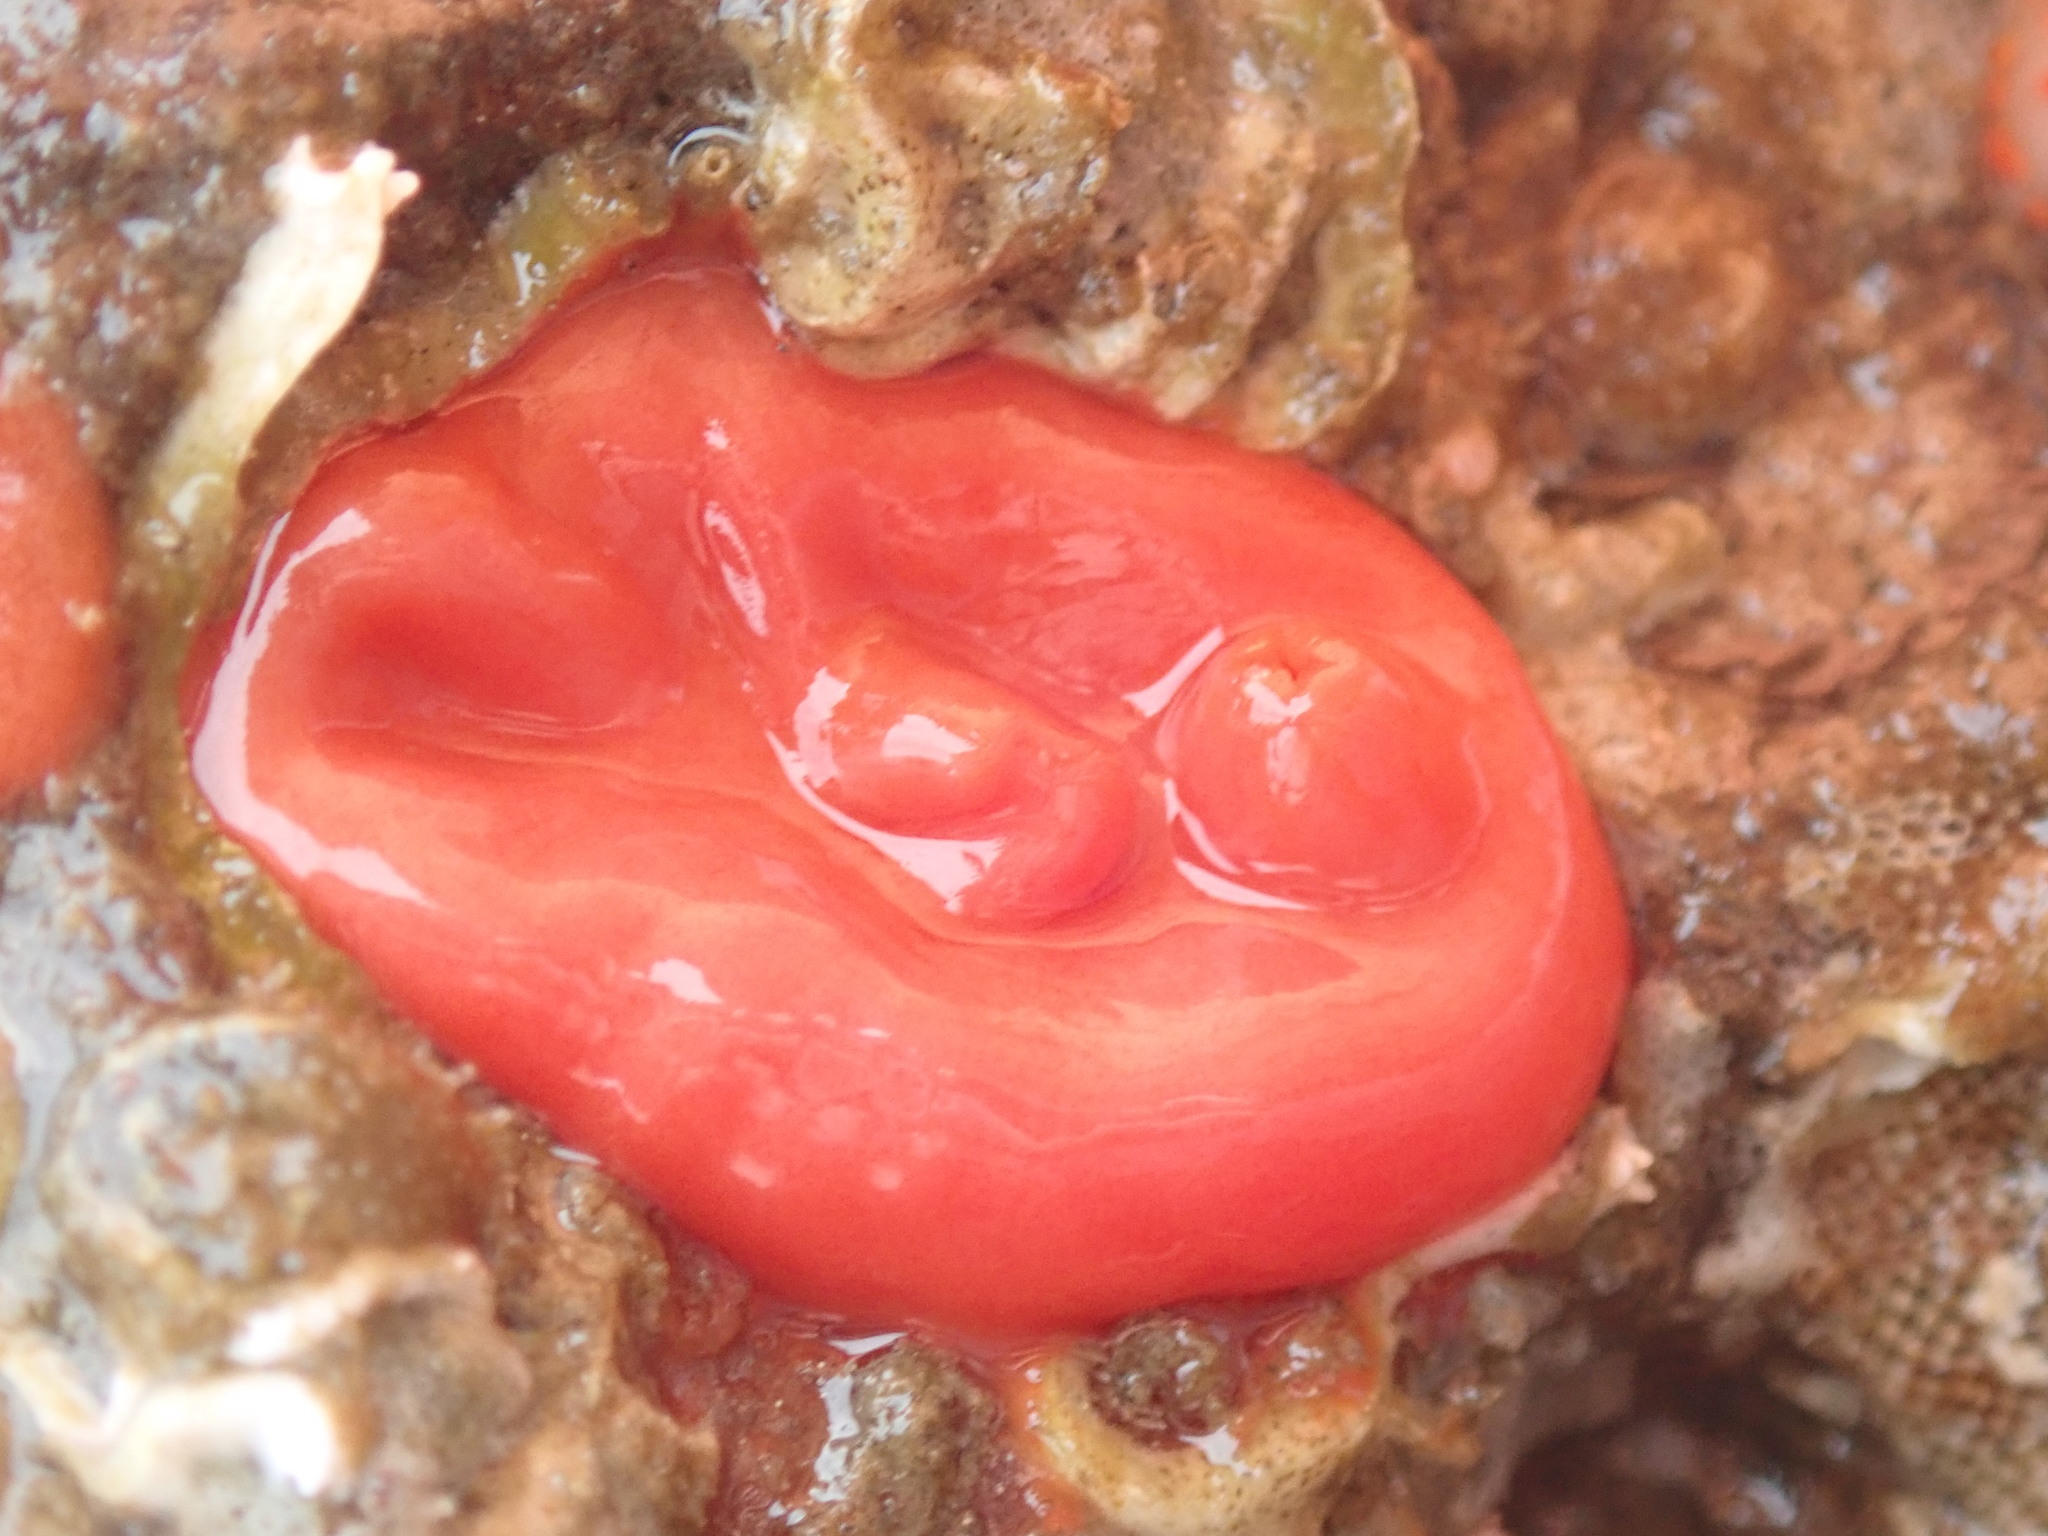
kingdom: Animalia
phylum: Chordata
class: Ascidiacea
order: Stolidobranchia
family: Styelidae
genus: Cnemidocarpa
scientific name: Cnemidocarpa finmarkiensis
